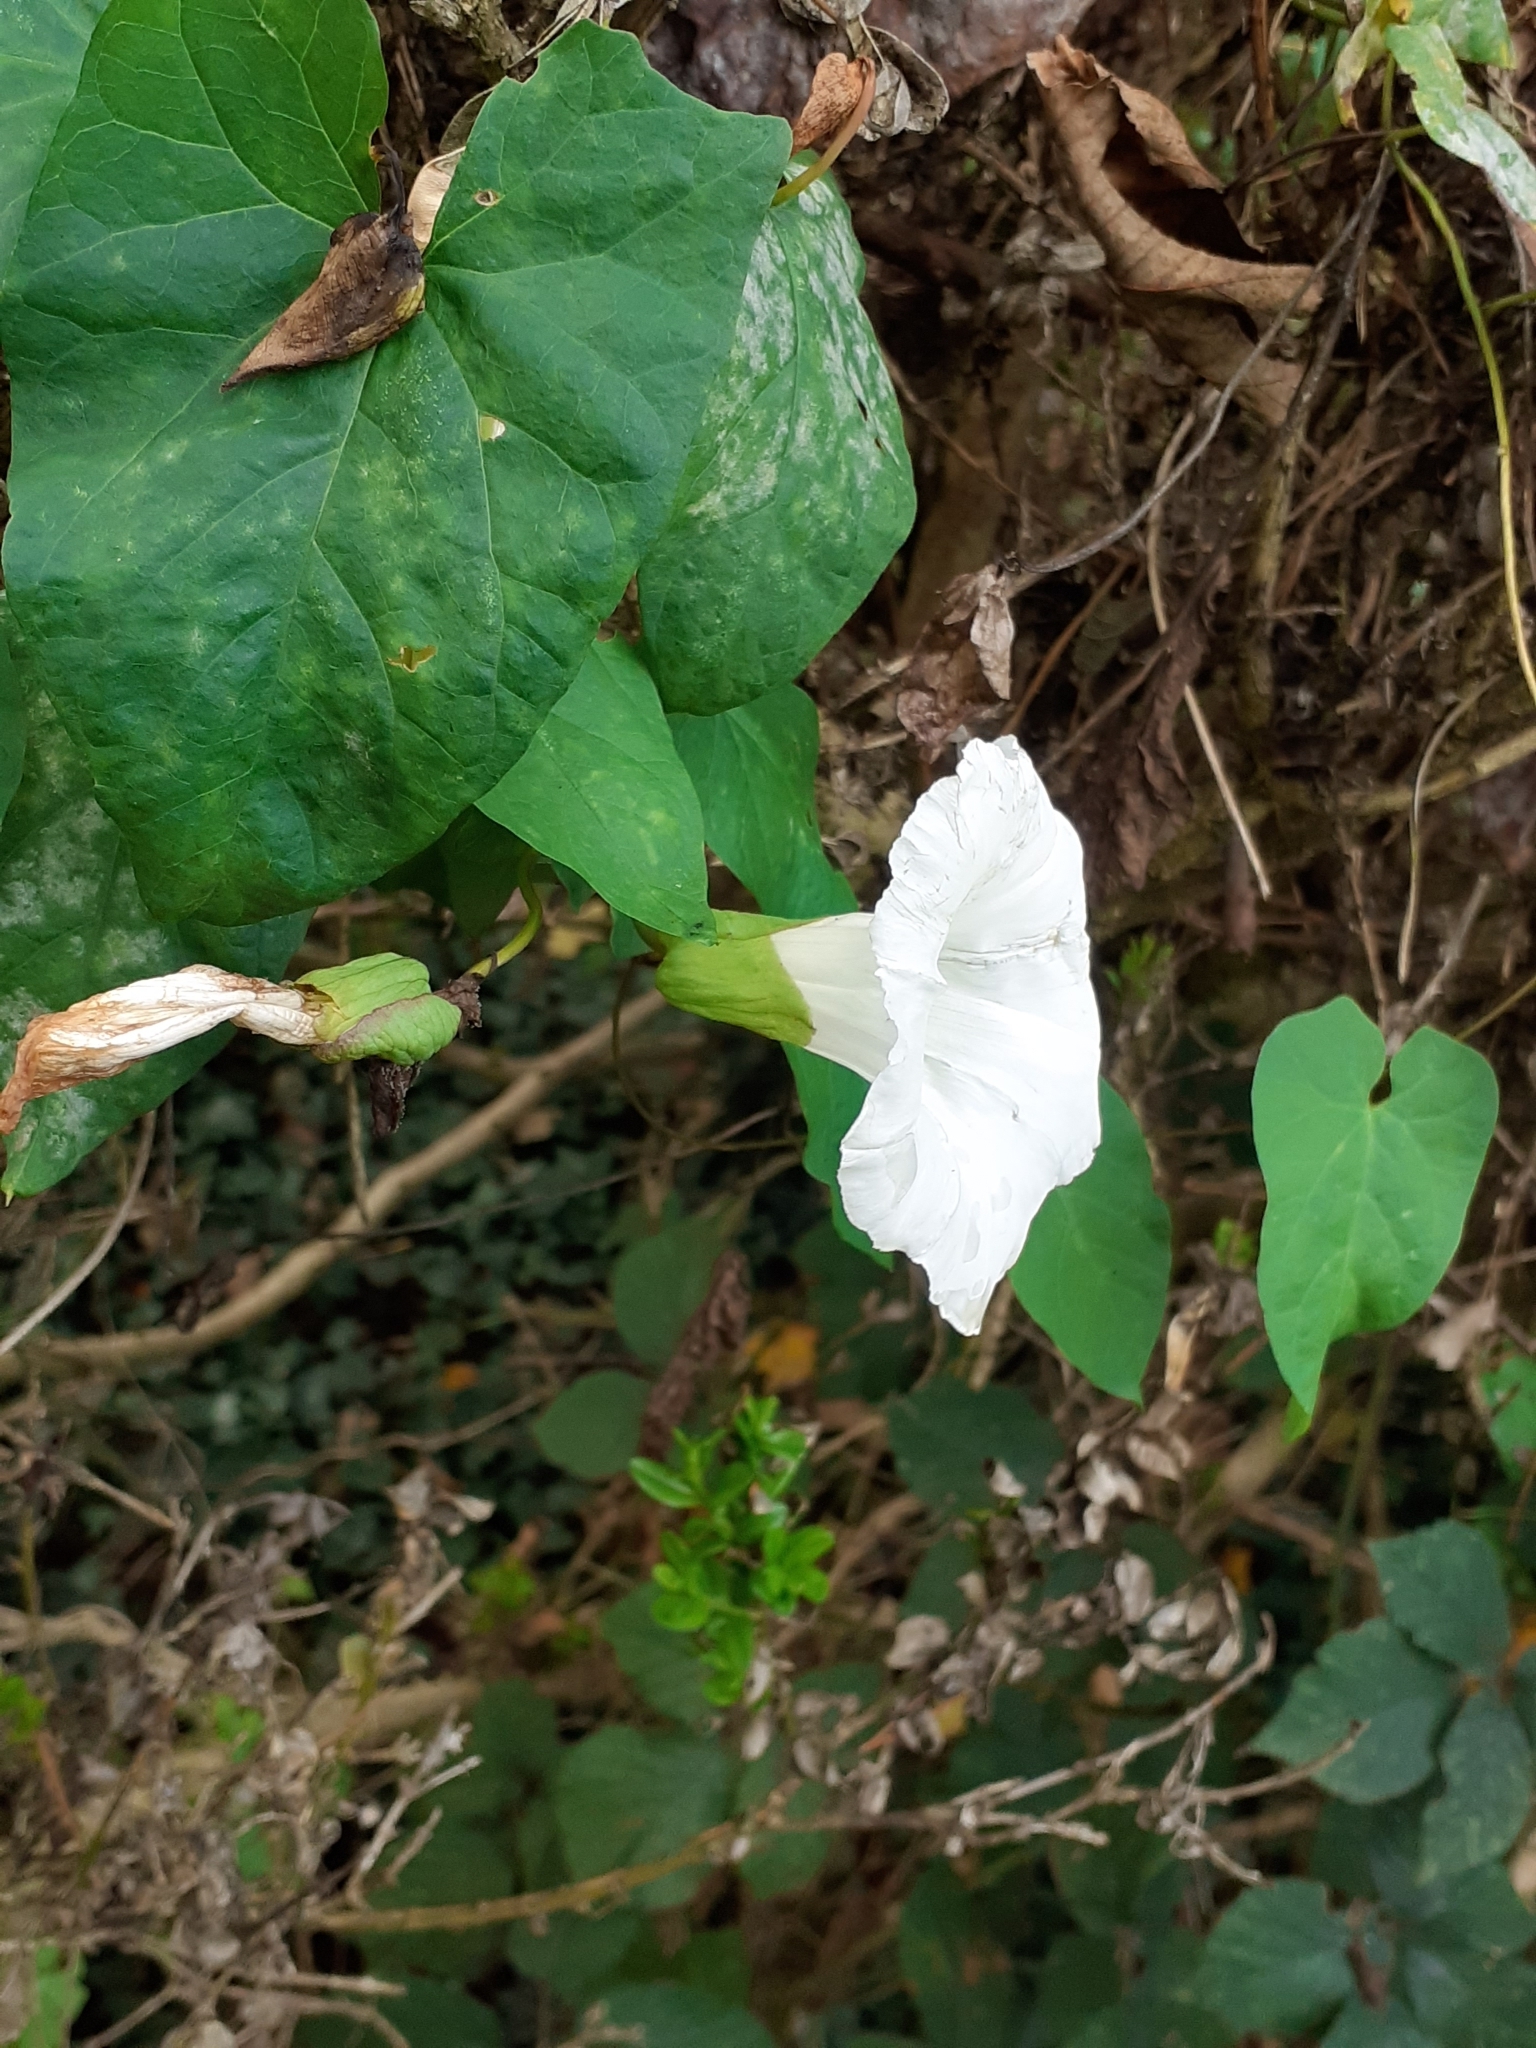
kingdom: Plantae
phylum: Tracheophyta
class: Magnoliopsida
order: Solanales
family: Convolvulaceae
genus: Calystegia
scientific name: Calystegia silvatica
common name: Large bindweed
